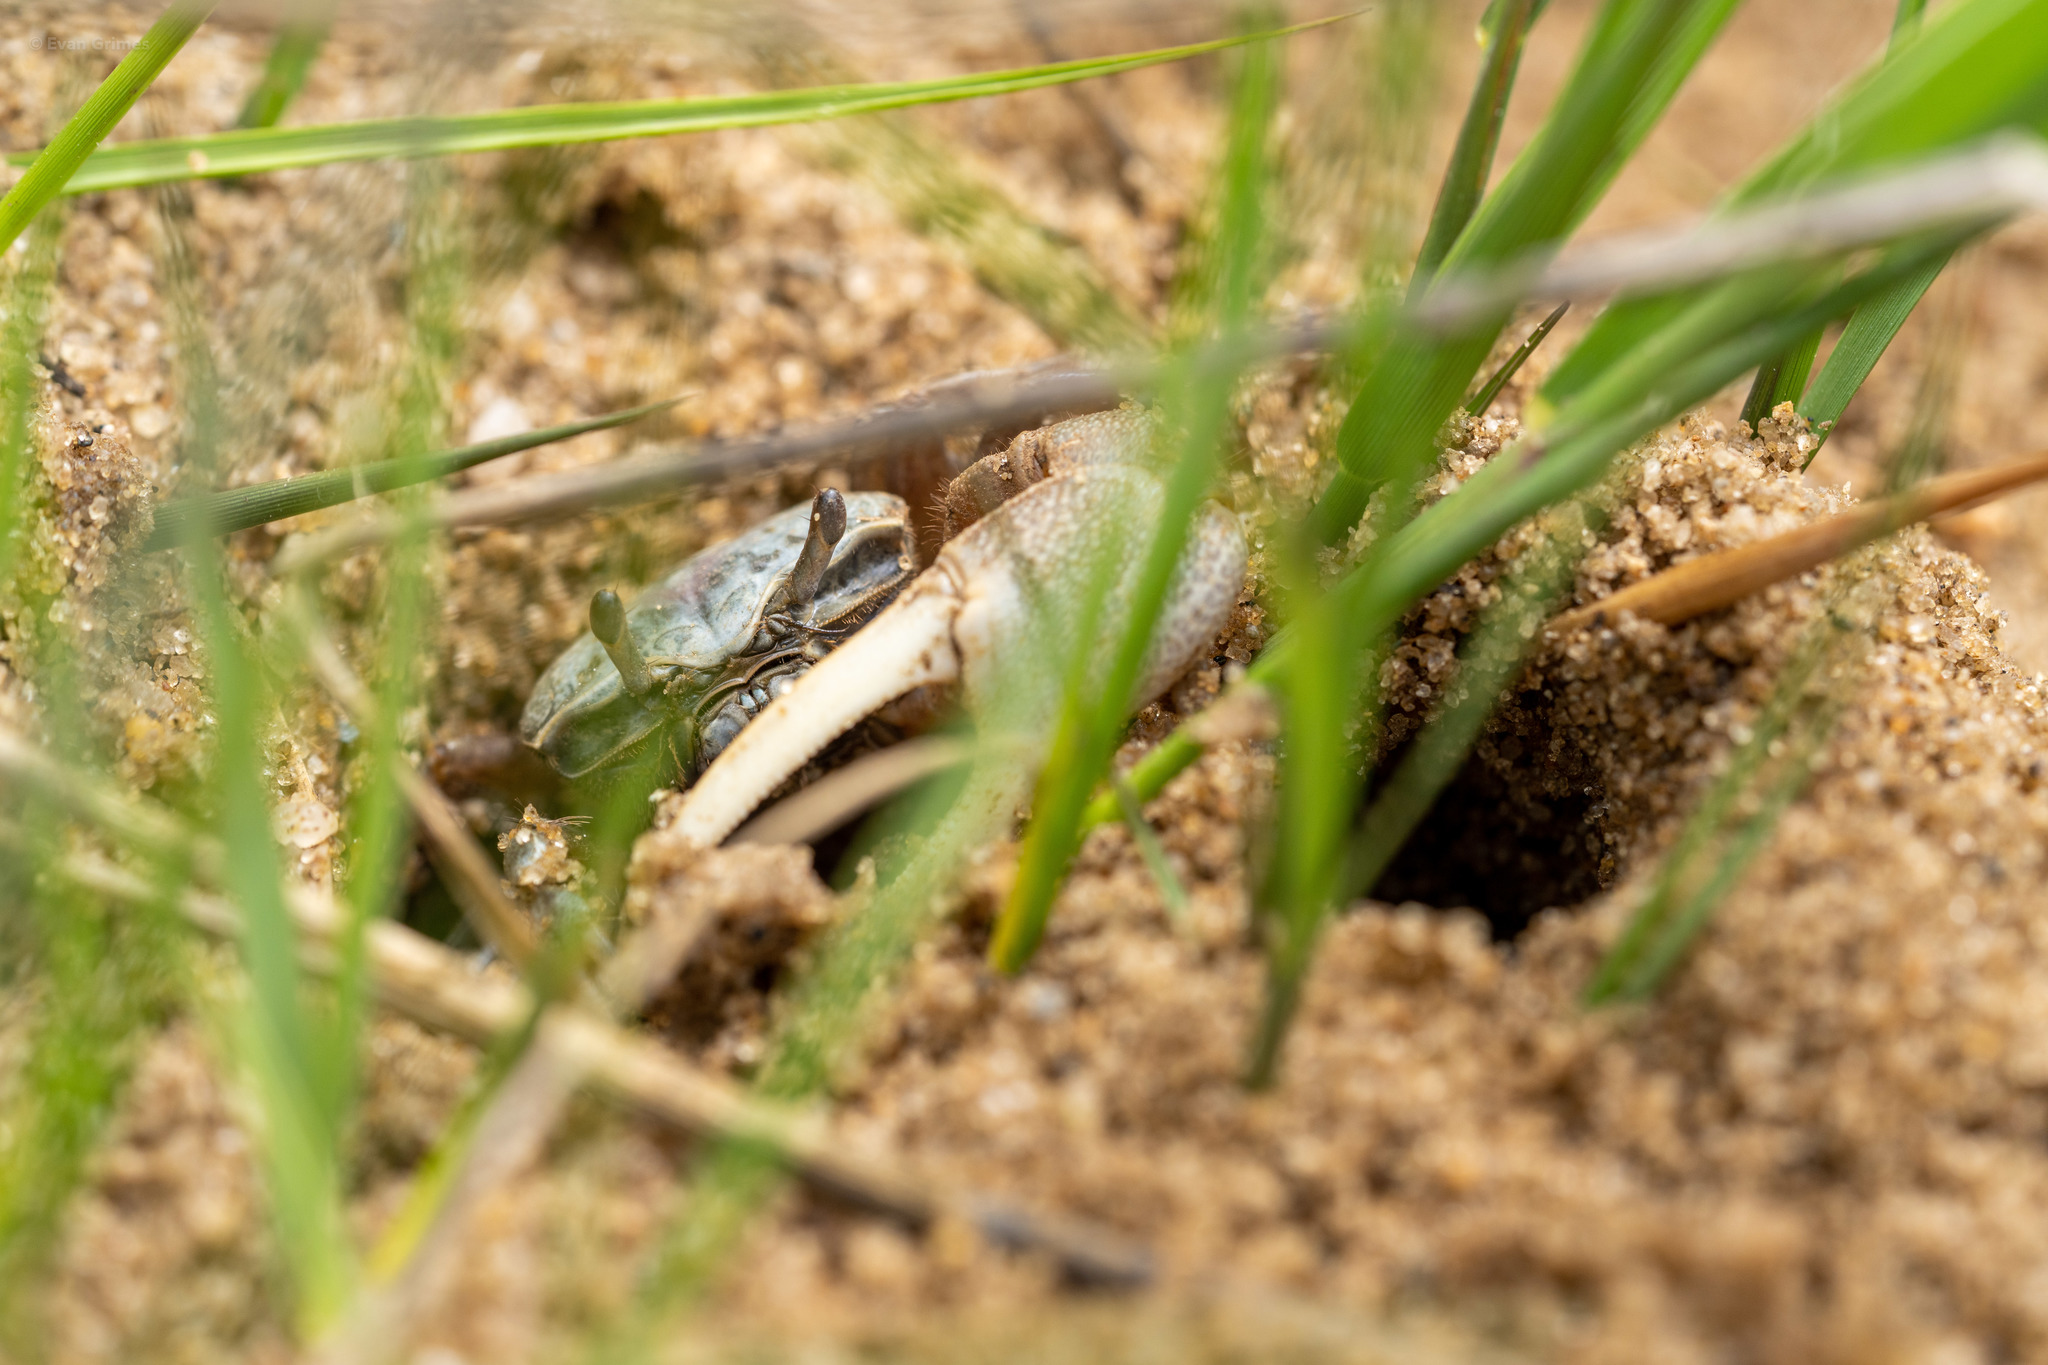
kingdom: Animalia
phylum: Arthropoda
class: Malacostraca
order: Decapoda
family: Ocypodidae
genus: Leptuca
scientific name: Leptuca pugilator
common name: Atlantic sand fiddler crab
